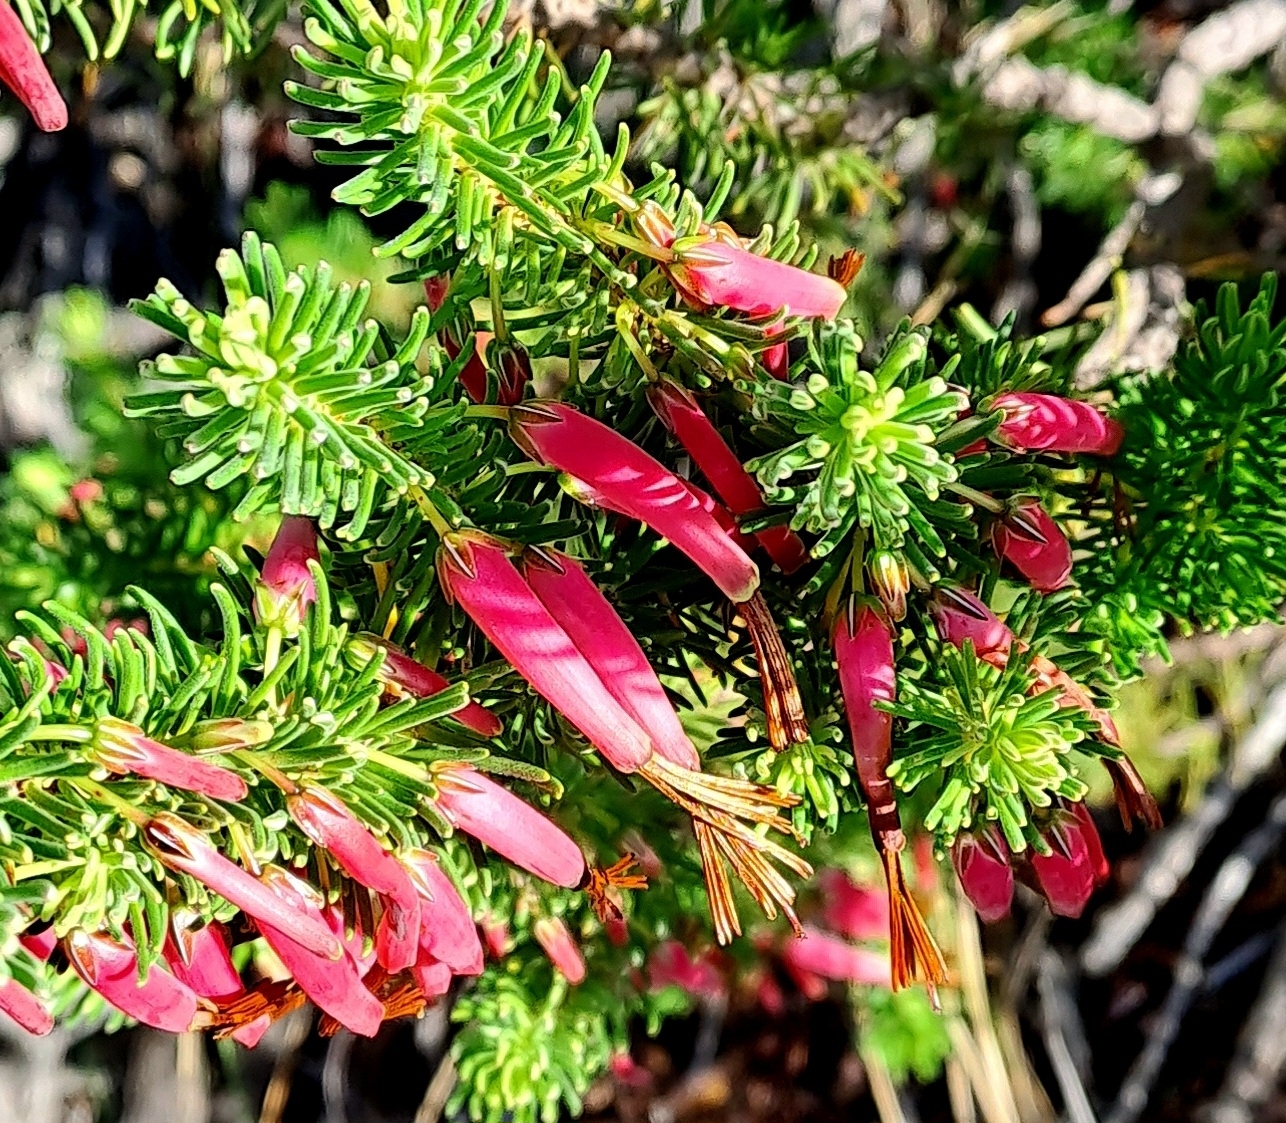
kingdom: Plantae
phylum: Tracheophyta
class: Magnoliopsida
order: Ericales
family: Ericaceae
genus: Erica
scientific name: Erica plukenetii
